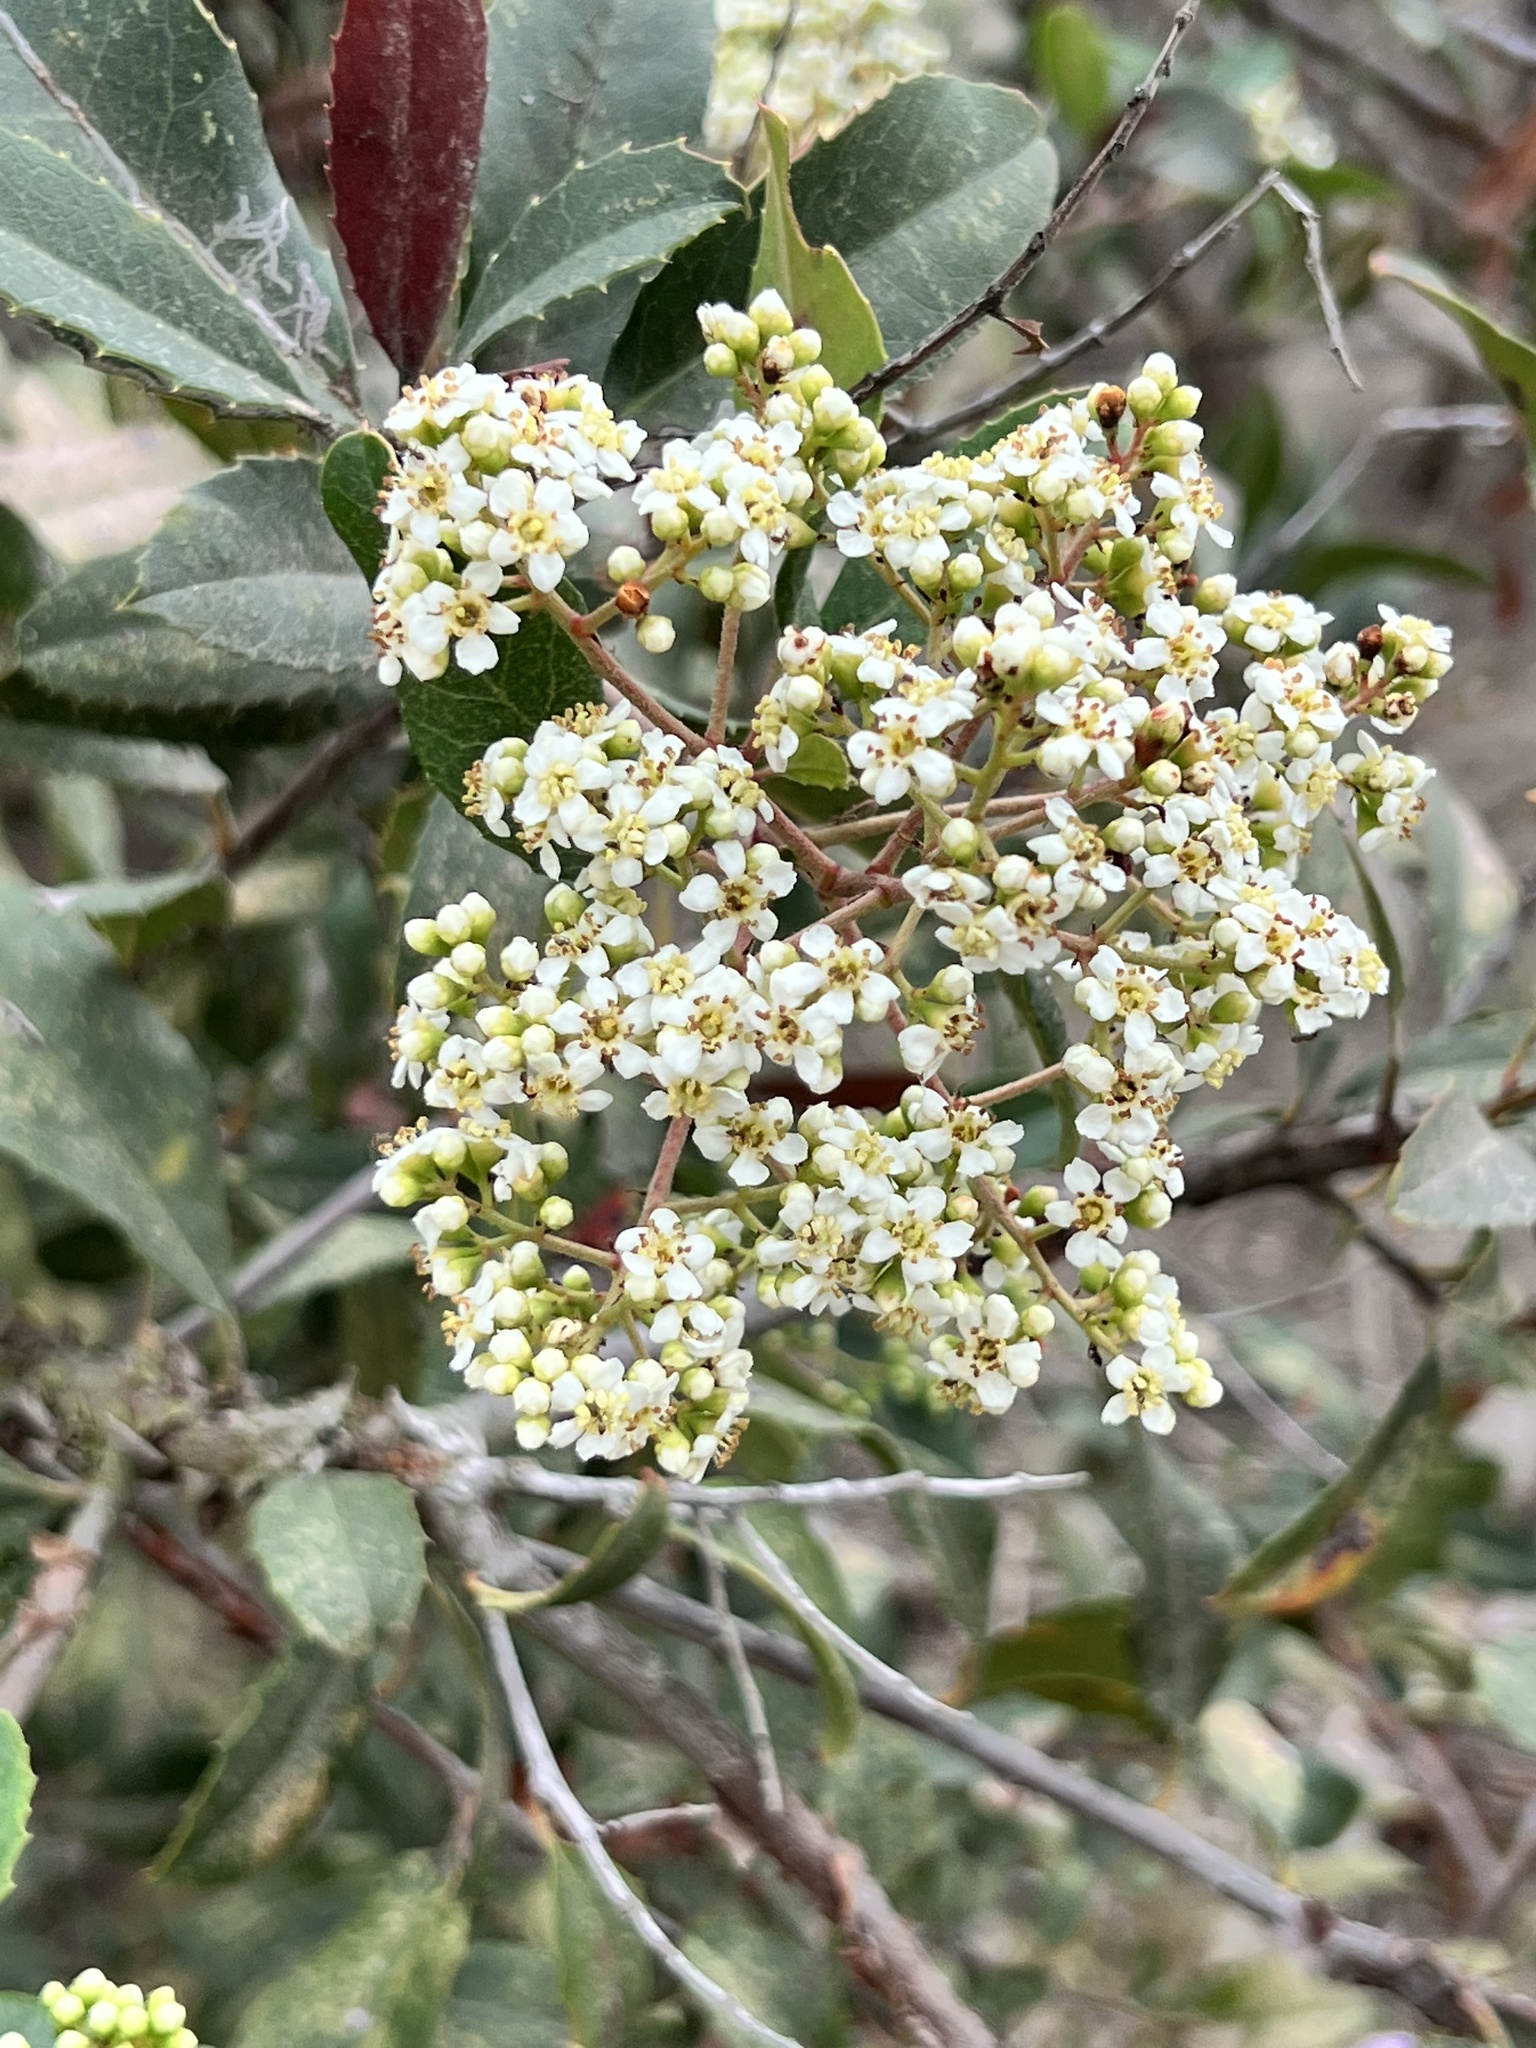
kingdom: Plantae
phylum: Tracheophyta
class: Magnoliopsida
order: Rosales
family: Rosaceae
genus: Heteromeles
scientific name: Heteromeles arbutifolia
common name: California-holly
